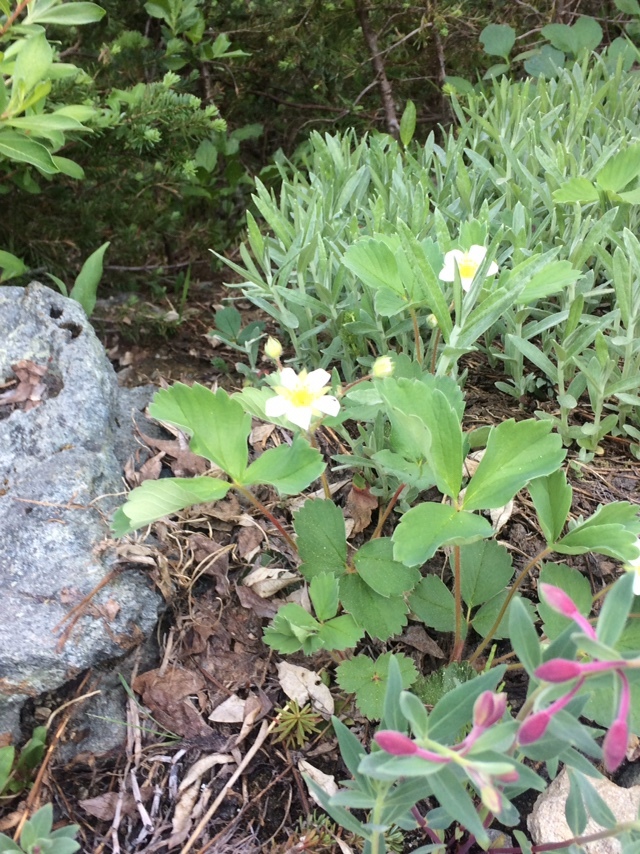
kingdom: Plantae
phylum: Tracheophyta
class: Magnoliopsida
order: Rosales
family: Rosaceae
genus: Fragaria
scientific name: Fragaria virginiana
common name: Thickleaved wild strawberry
